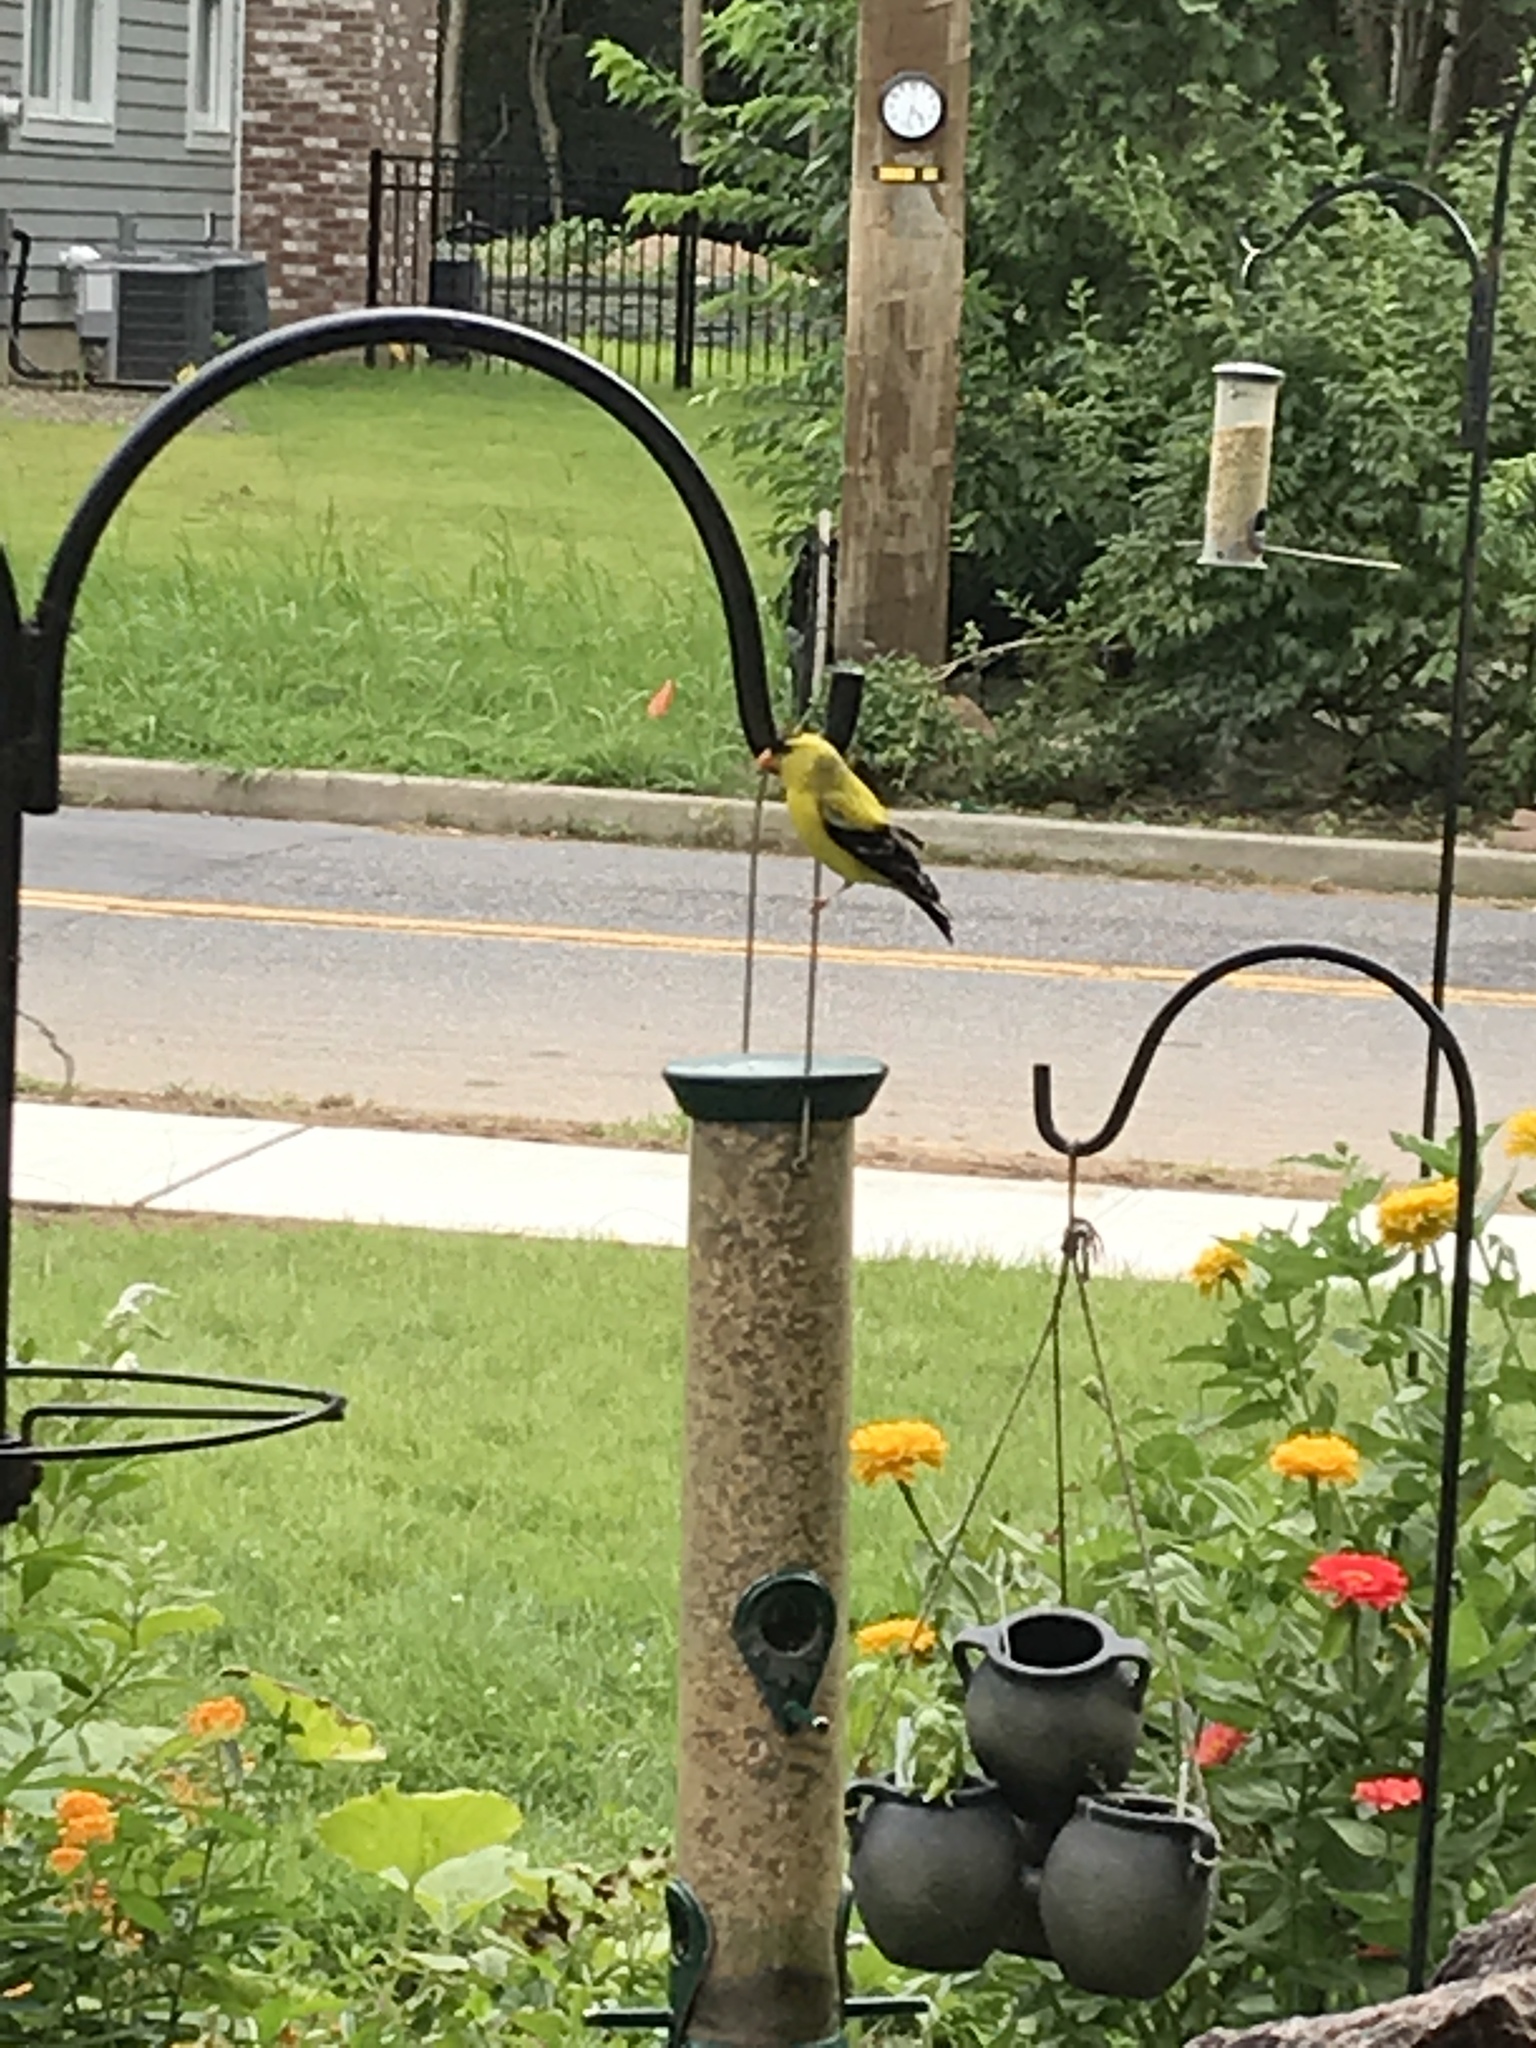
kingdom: Animalia
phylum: Chordata
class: Aves
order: Passeriformes
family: Fringillidae
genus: Spinus
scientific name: Spinus tristis
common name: American goldfinch
